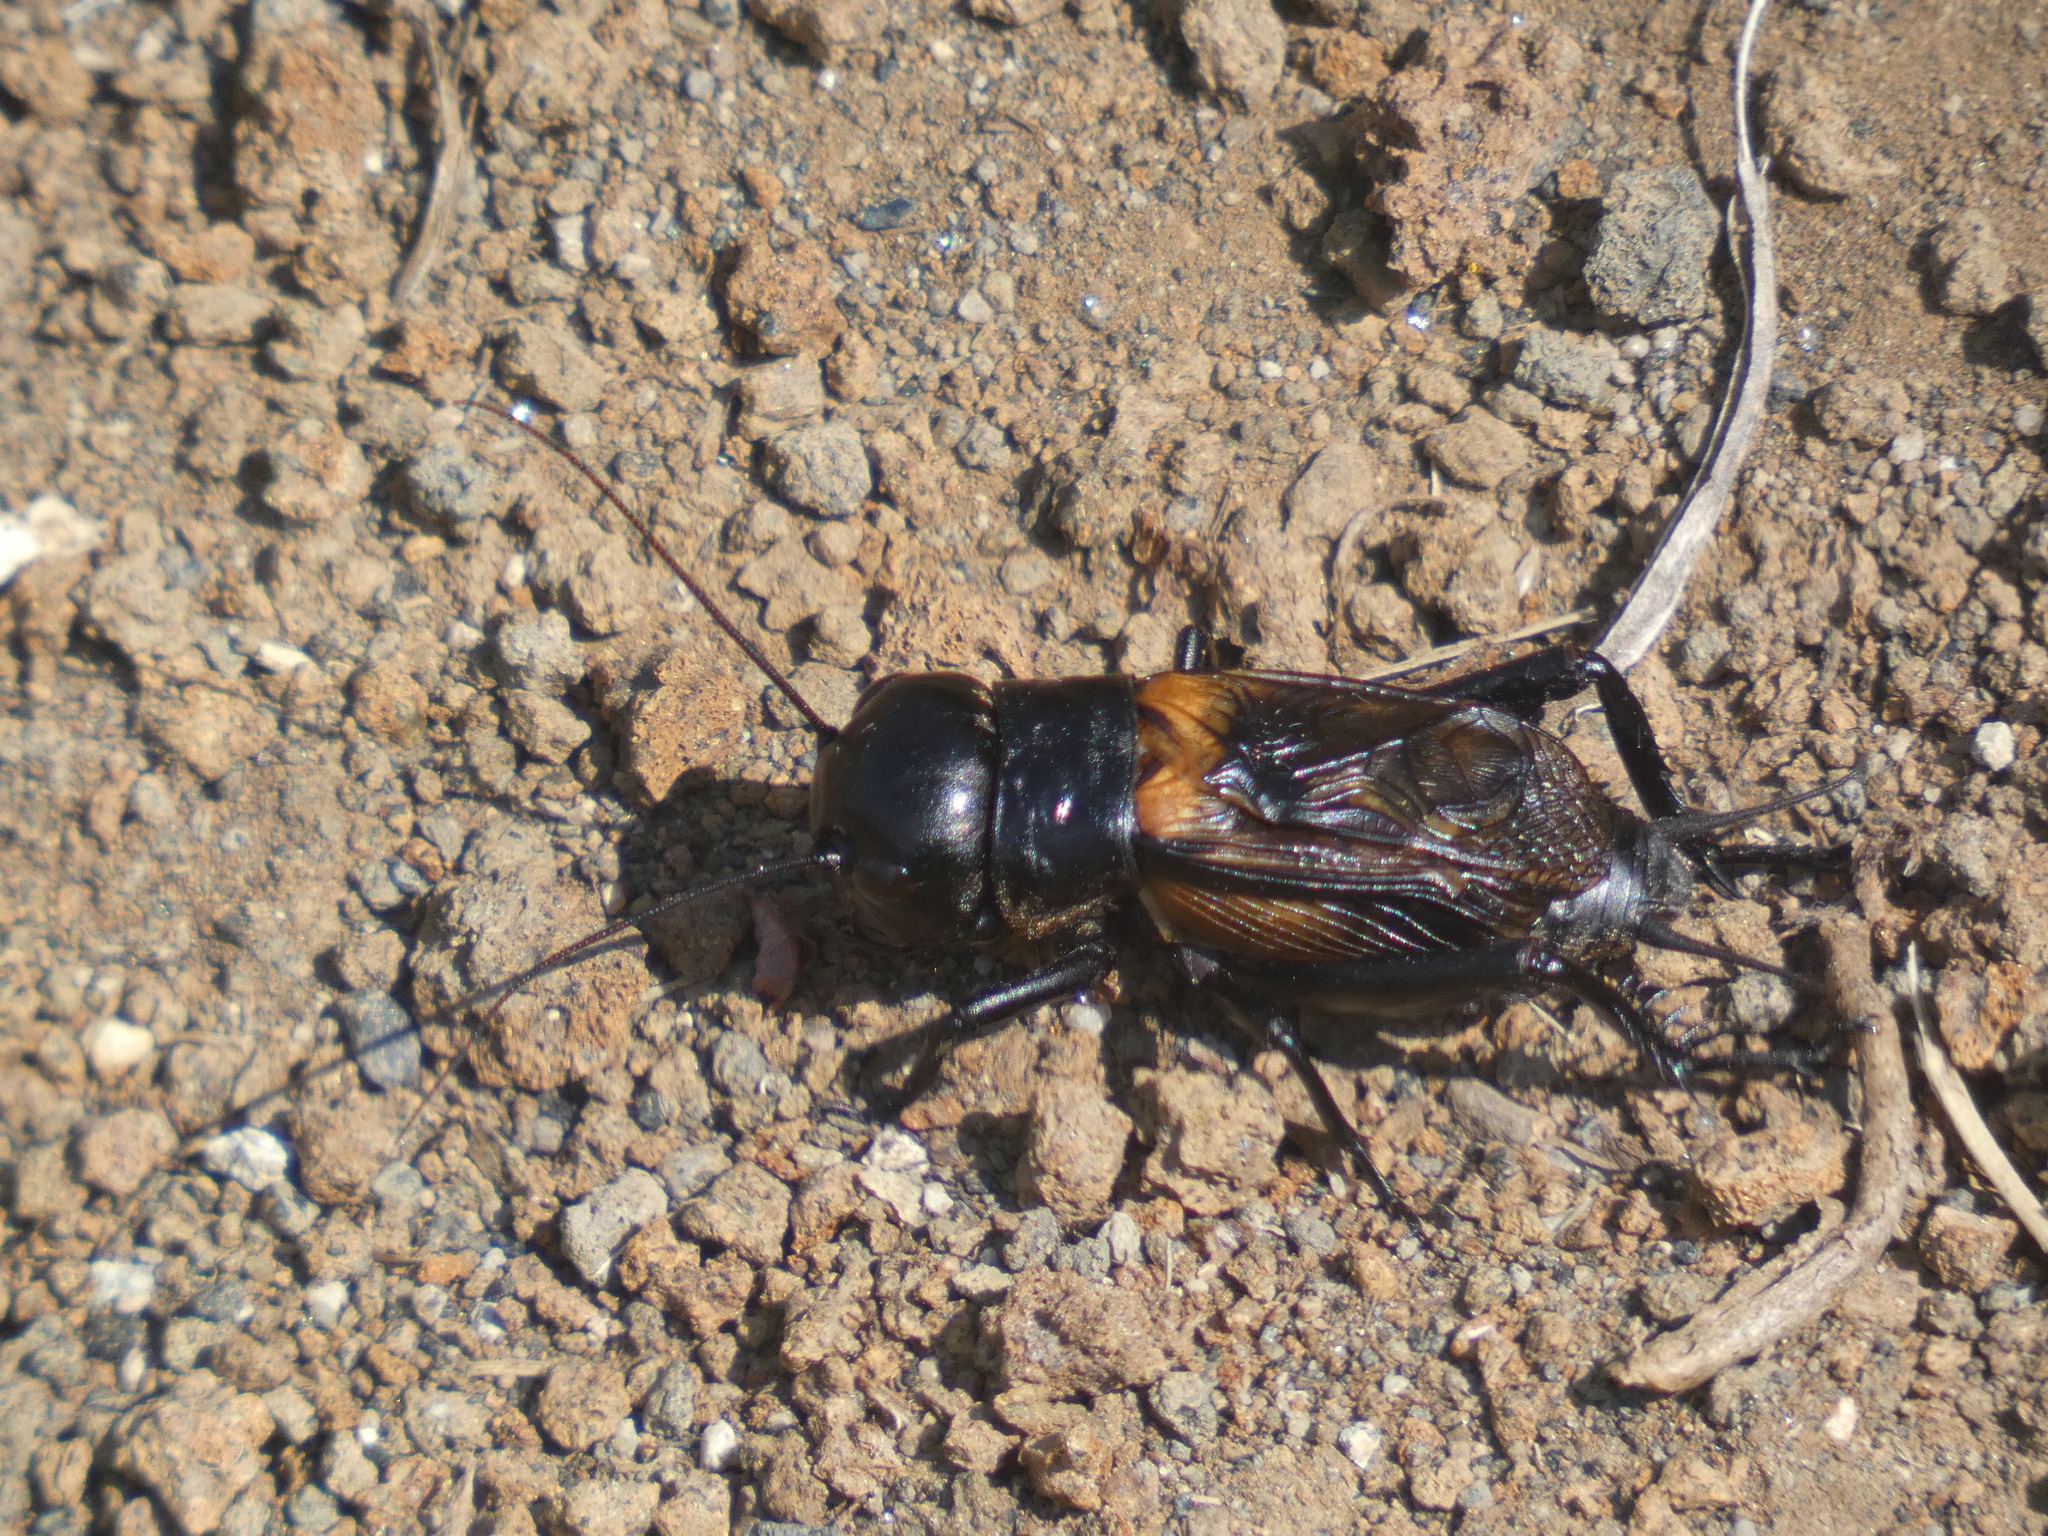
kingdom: Animalia
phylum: Arthropoda
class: Insecta
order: Orthoptera
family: Gryllidae
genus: Gryllus
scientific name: Gryllus campestris
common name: Field cricket
